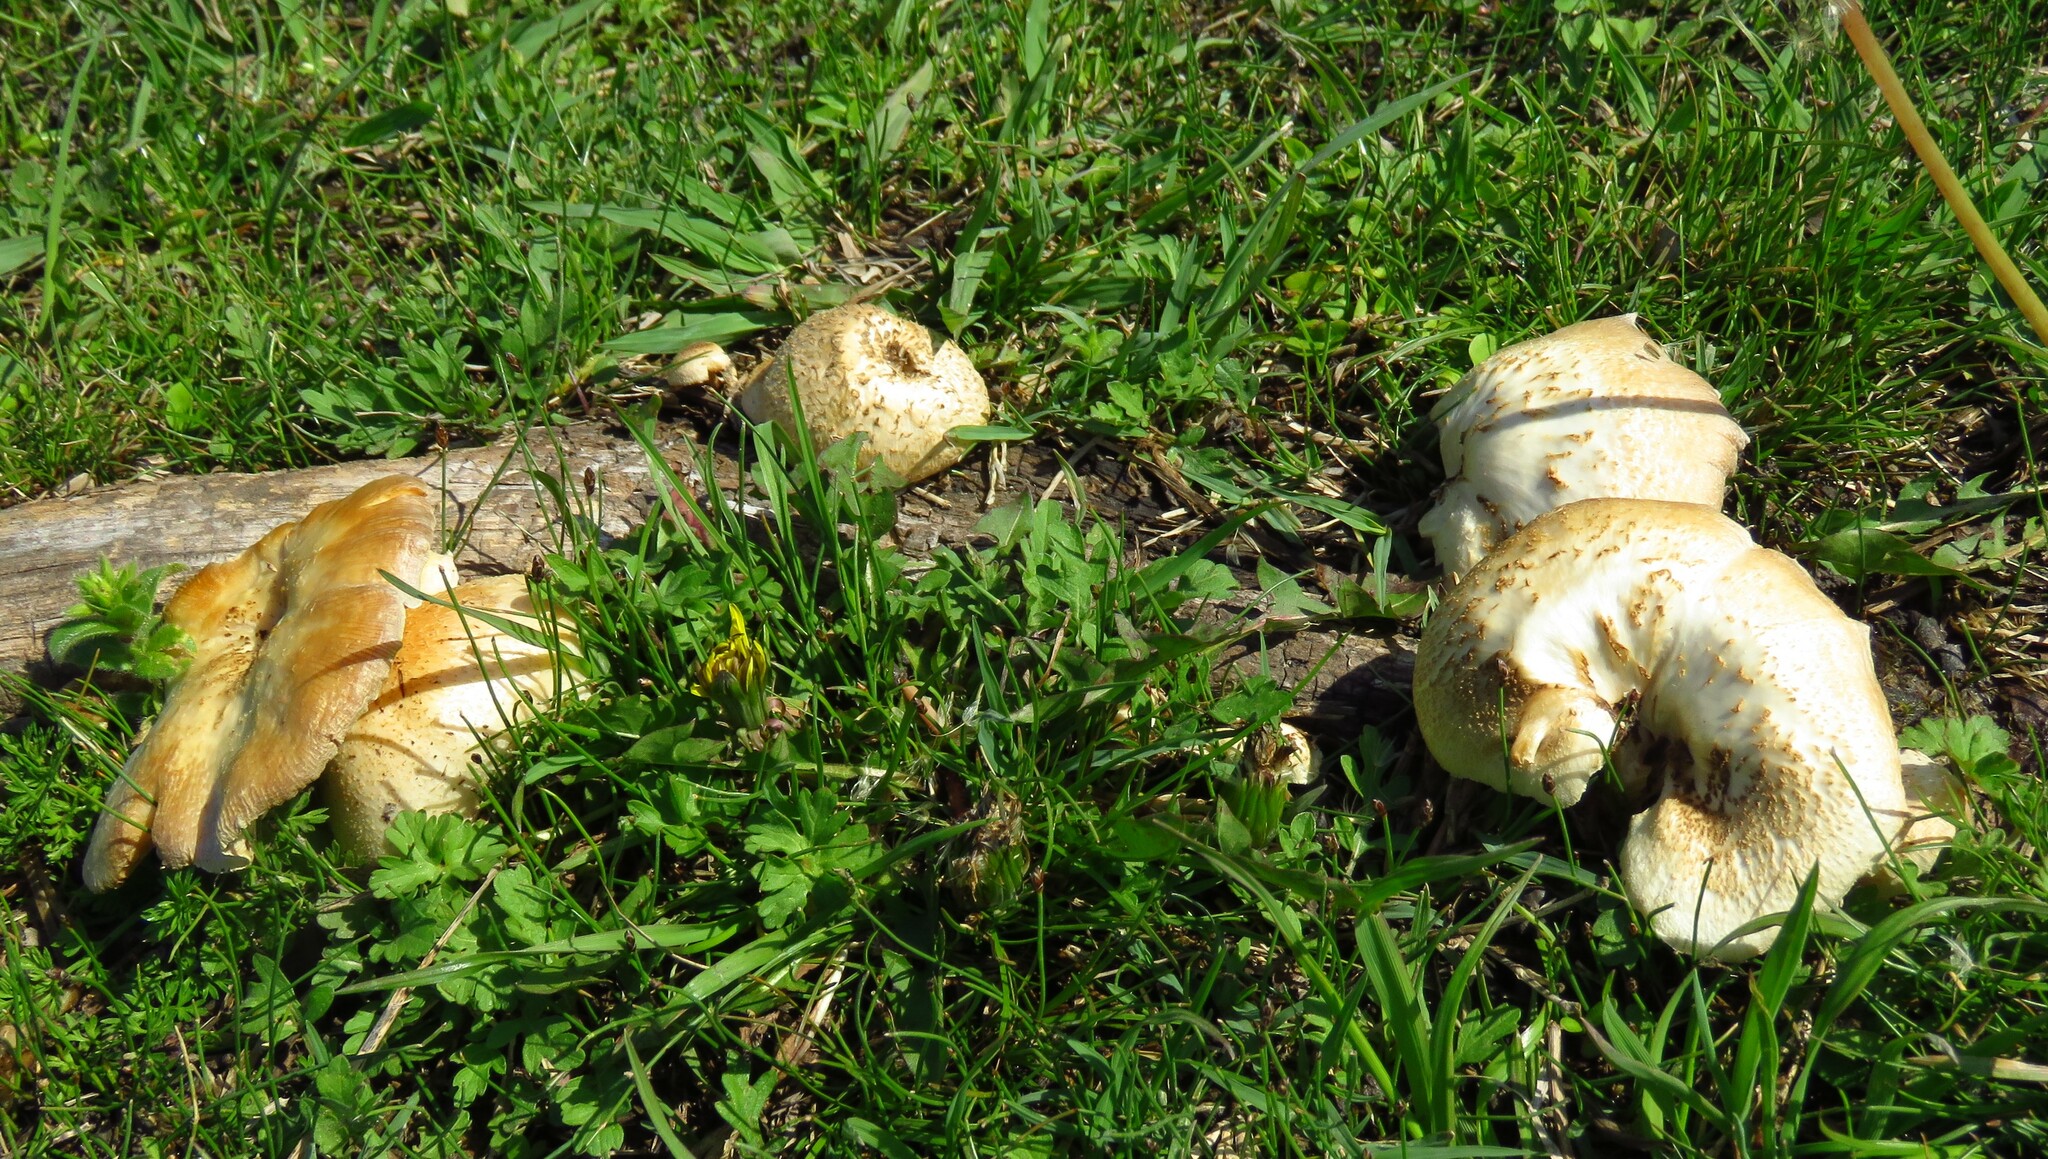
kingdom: Fungi
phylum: Basidiomycota
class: Agaricomycetes
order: Polyporales
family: Polyporaceae
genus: Lentinus
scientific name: Lentinus tigrinus
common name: Tiger sawgill
